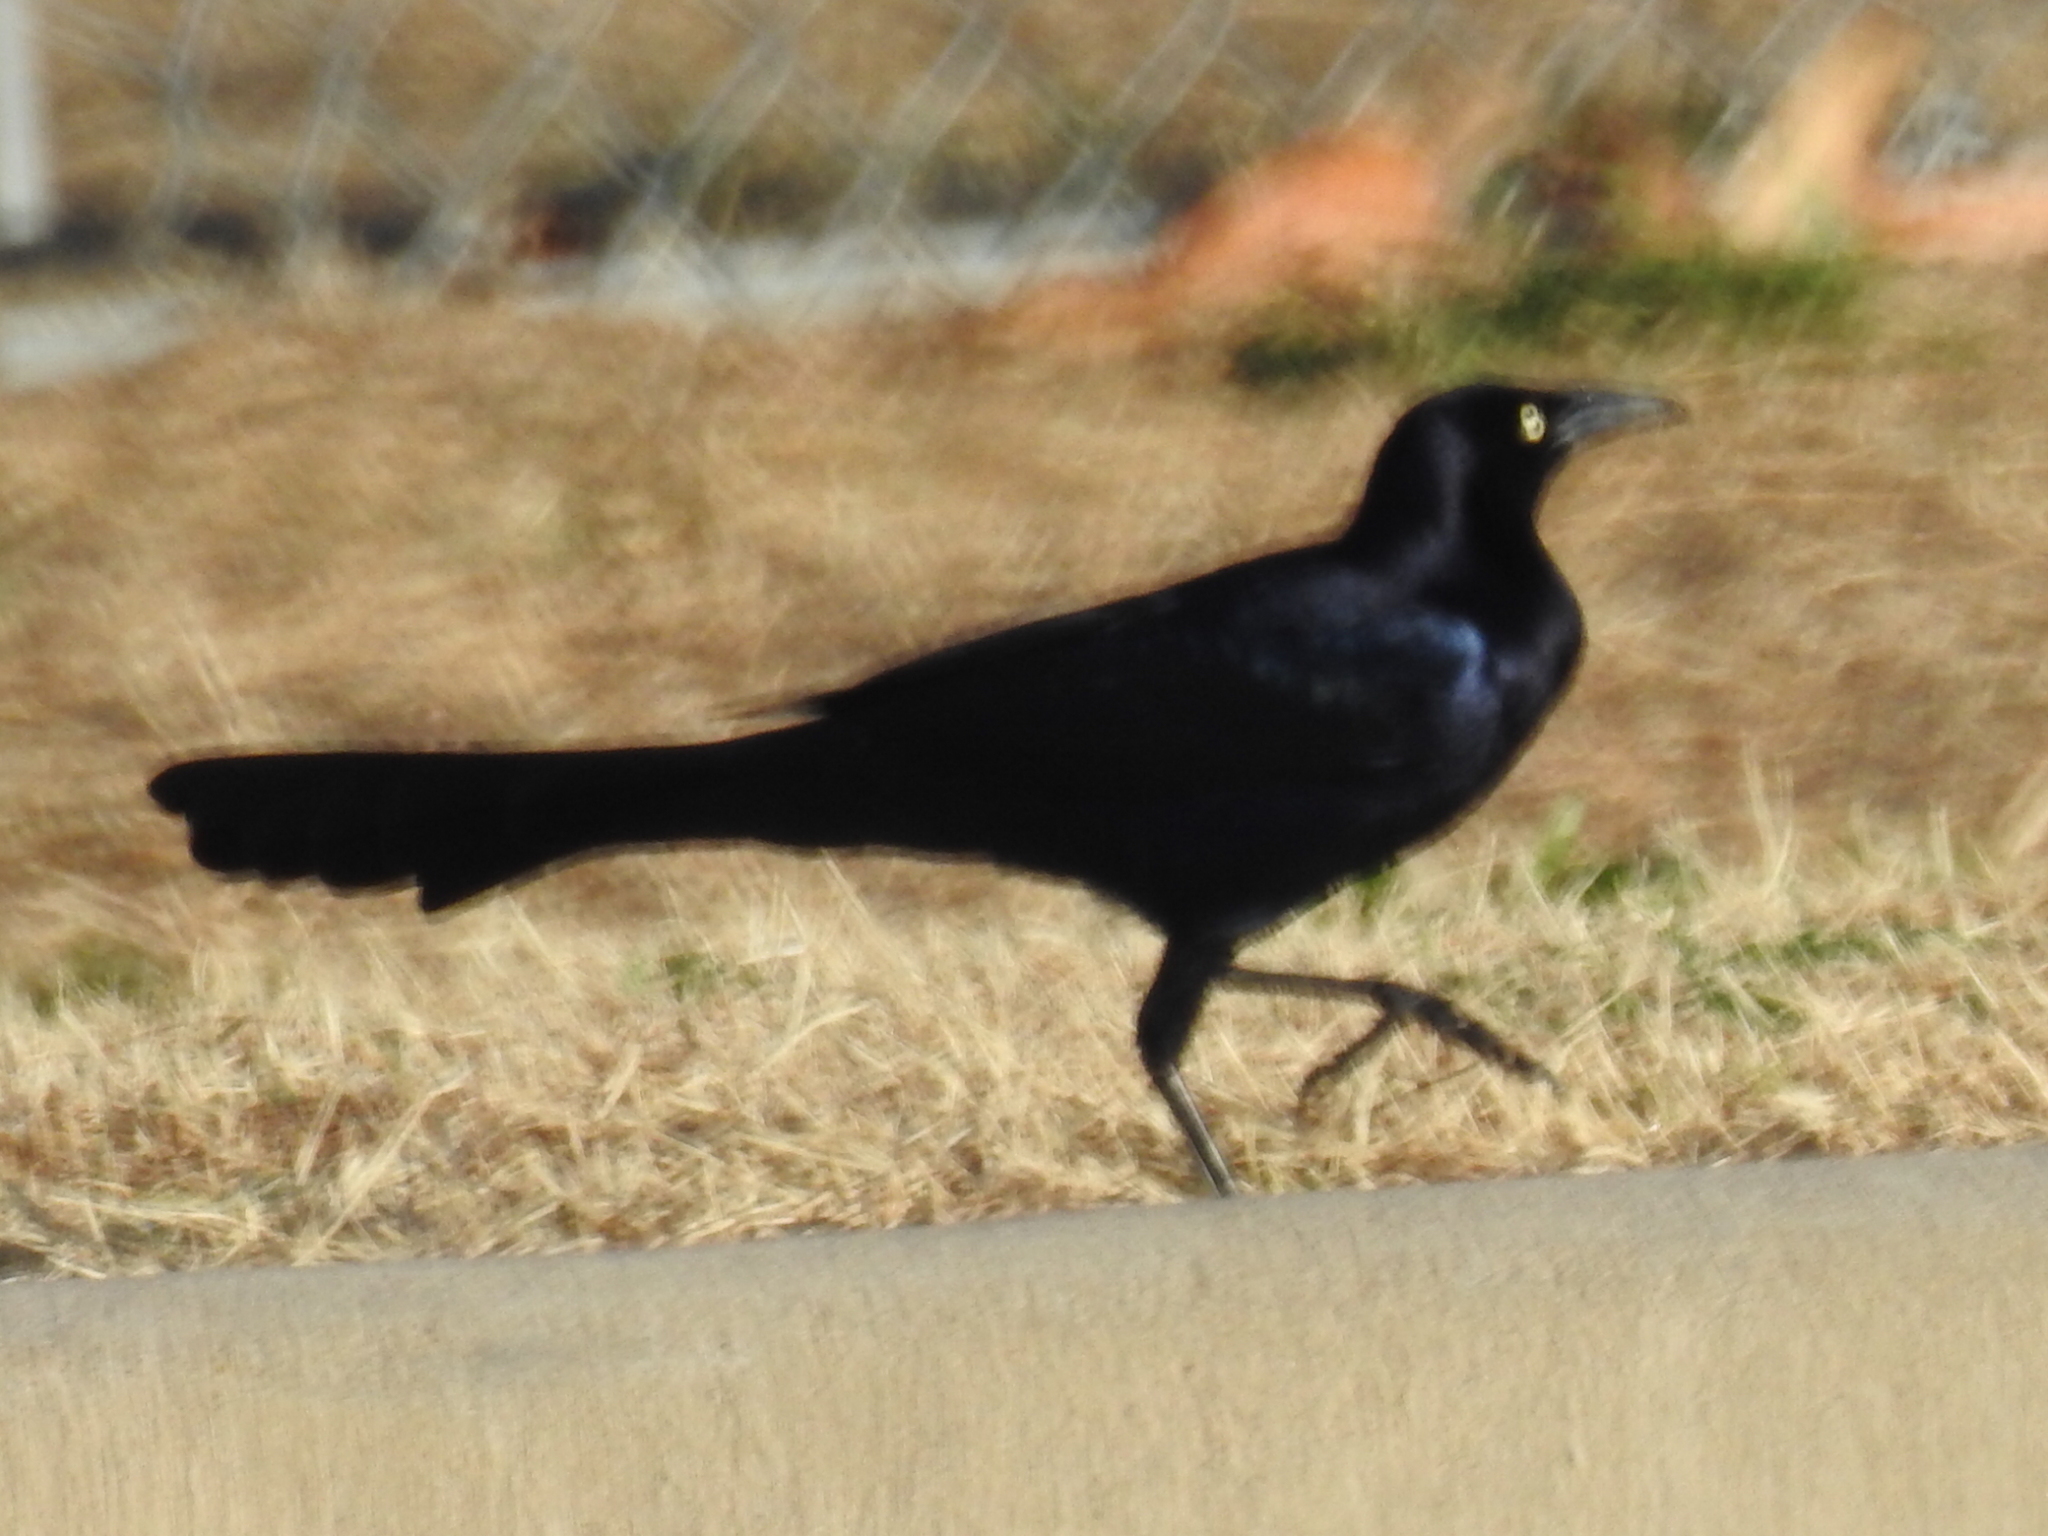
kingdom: Animalia
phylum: Chordata
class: Aves
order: Passeriformes
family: Icteridae
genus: Quiscalus
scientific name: Quiscalus mexicanus
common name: Great-tailed grackle
